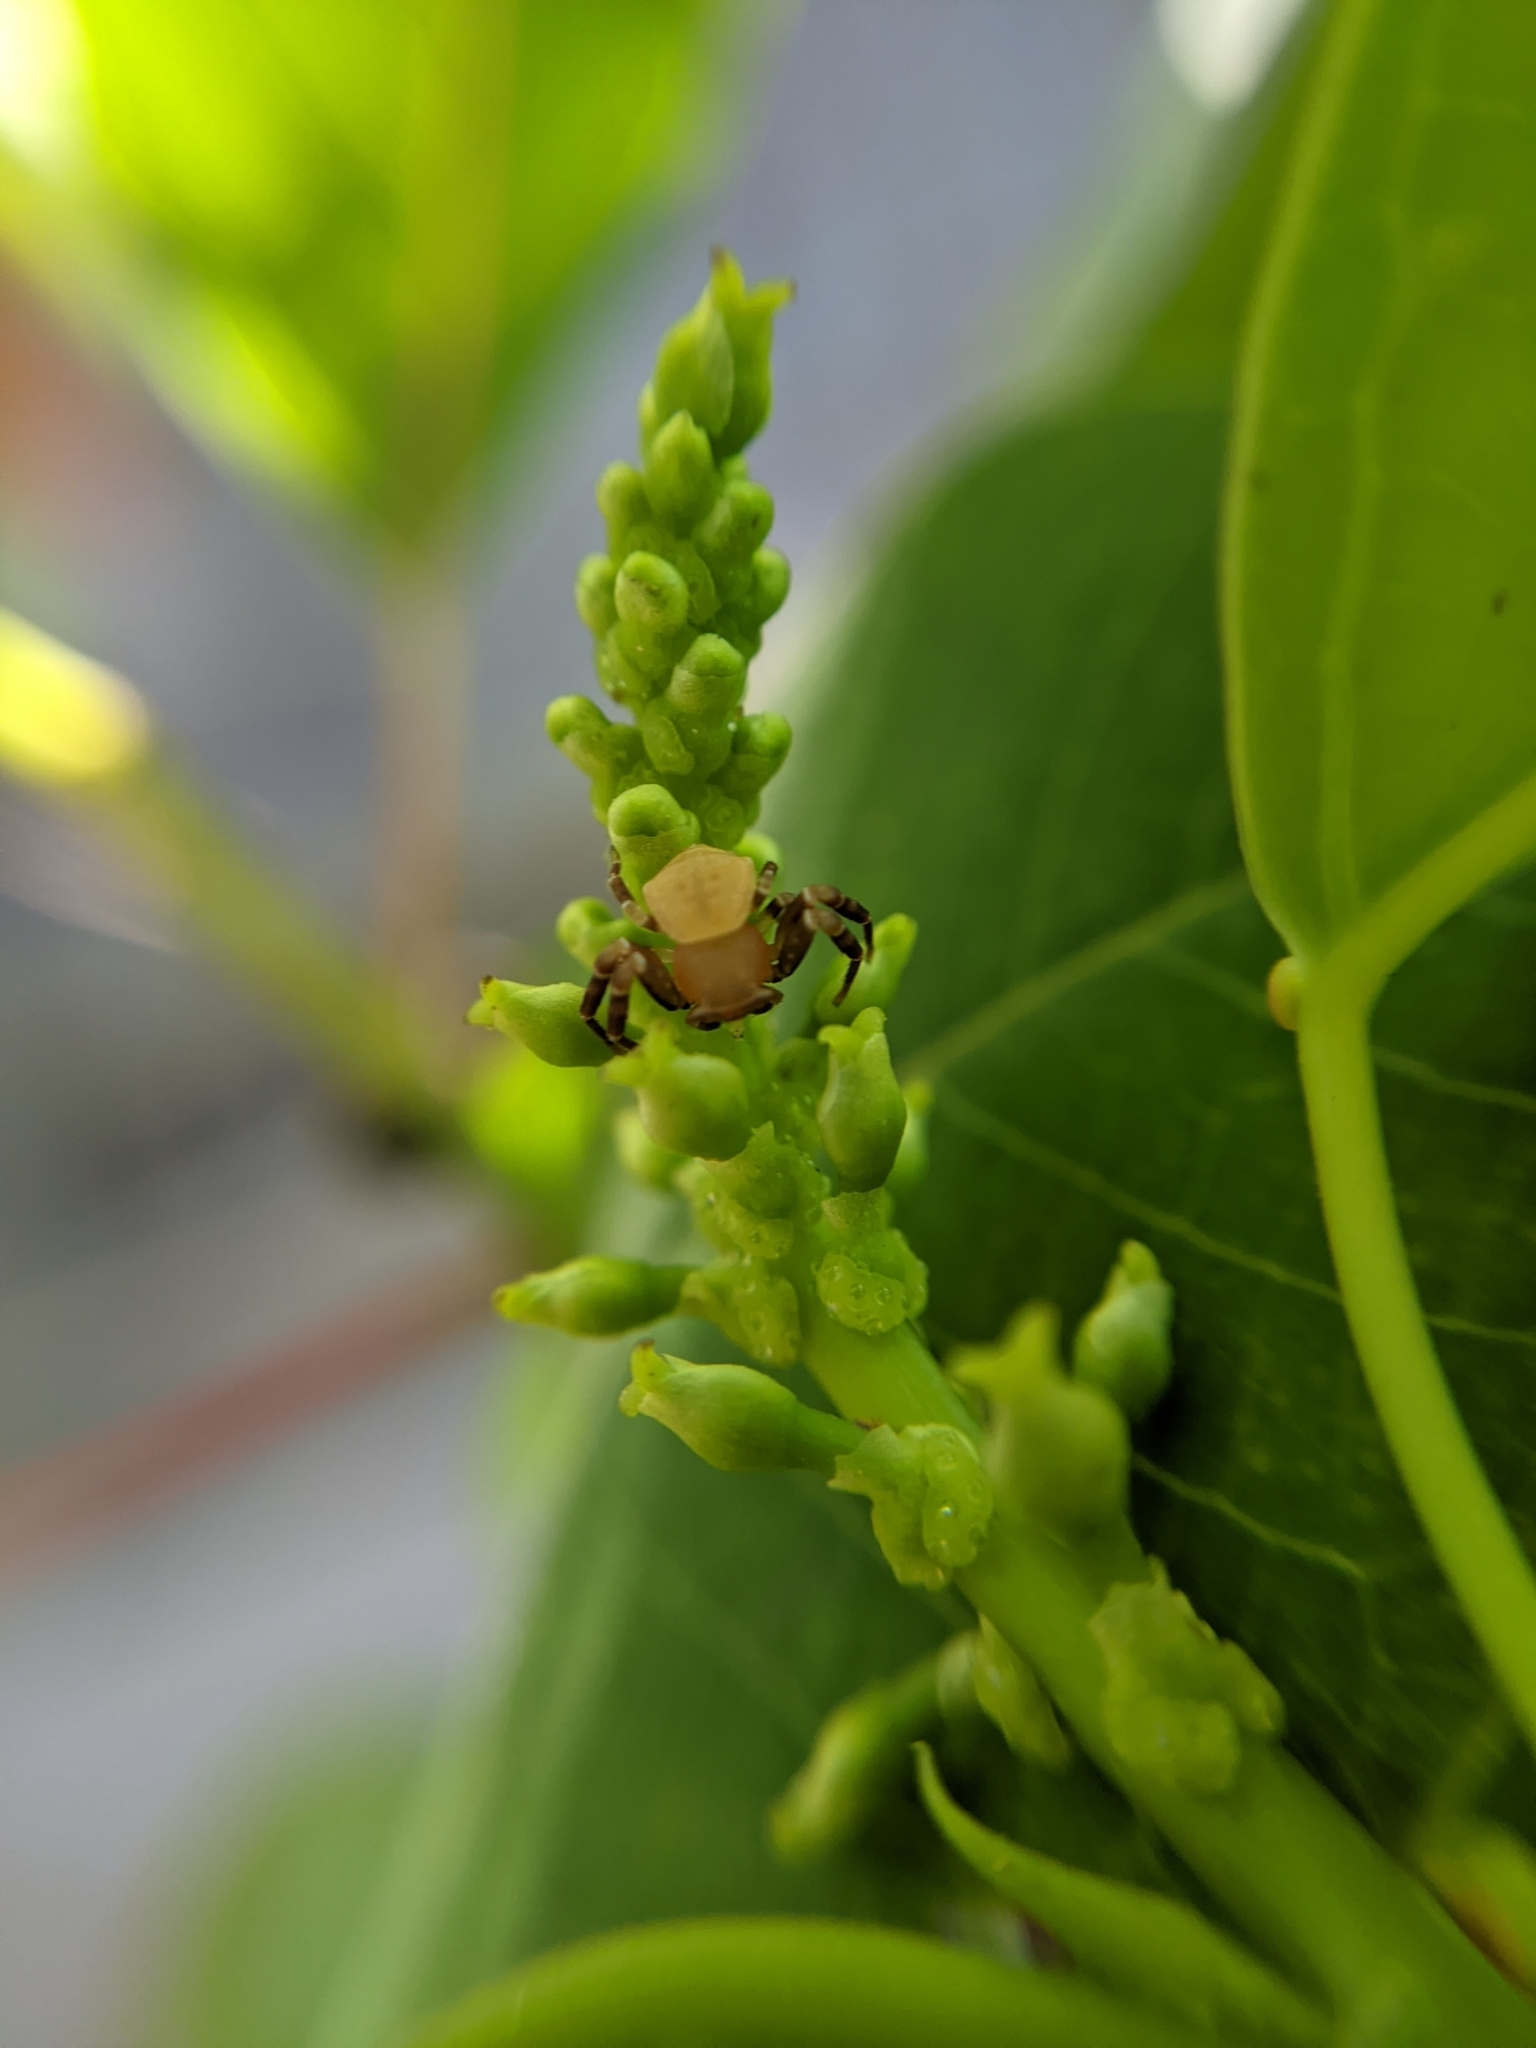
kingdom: Animalia
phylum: Arthropoda
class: Arachnida
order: Araneae
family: Thomisidae
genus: Thomisus
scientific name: Thomisus spectabilis
